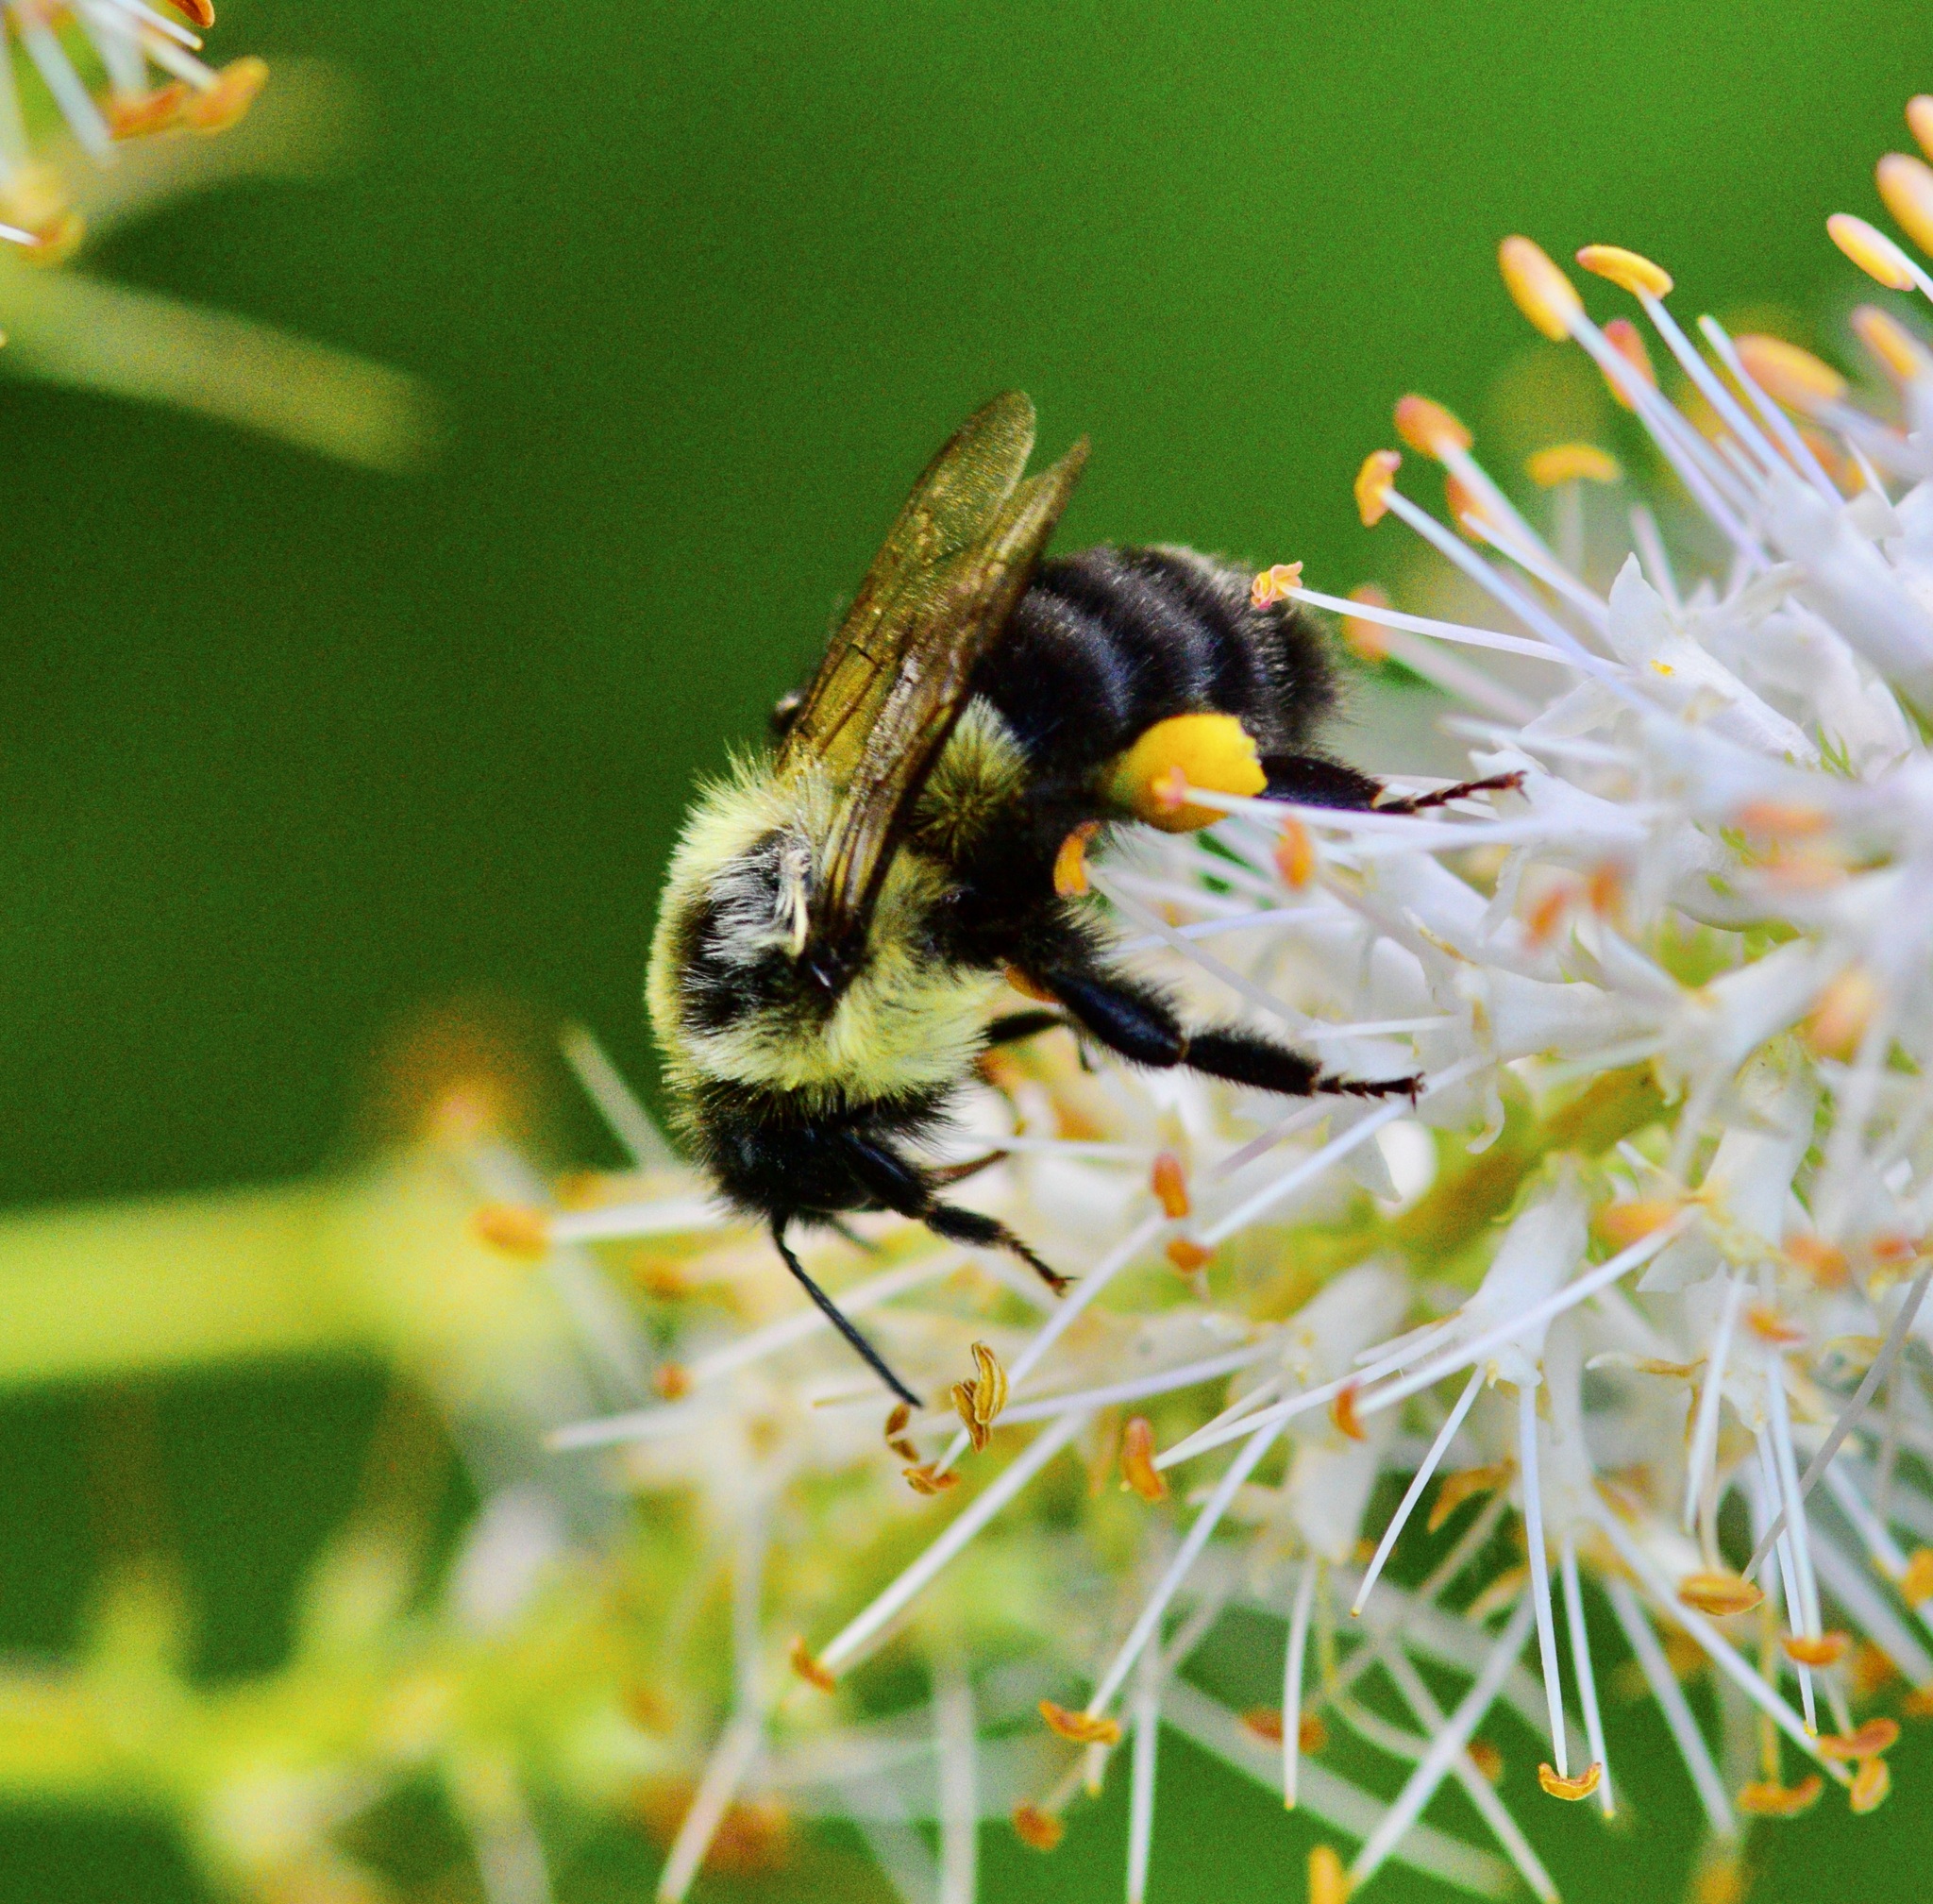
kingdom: Animalia
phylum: Arthropoda
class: Insecta
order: Hymenoptera
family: Apidae
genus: Bombus
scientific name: Bombus impatiens
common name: Common eastern bumble bee
